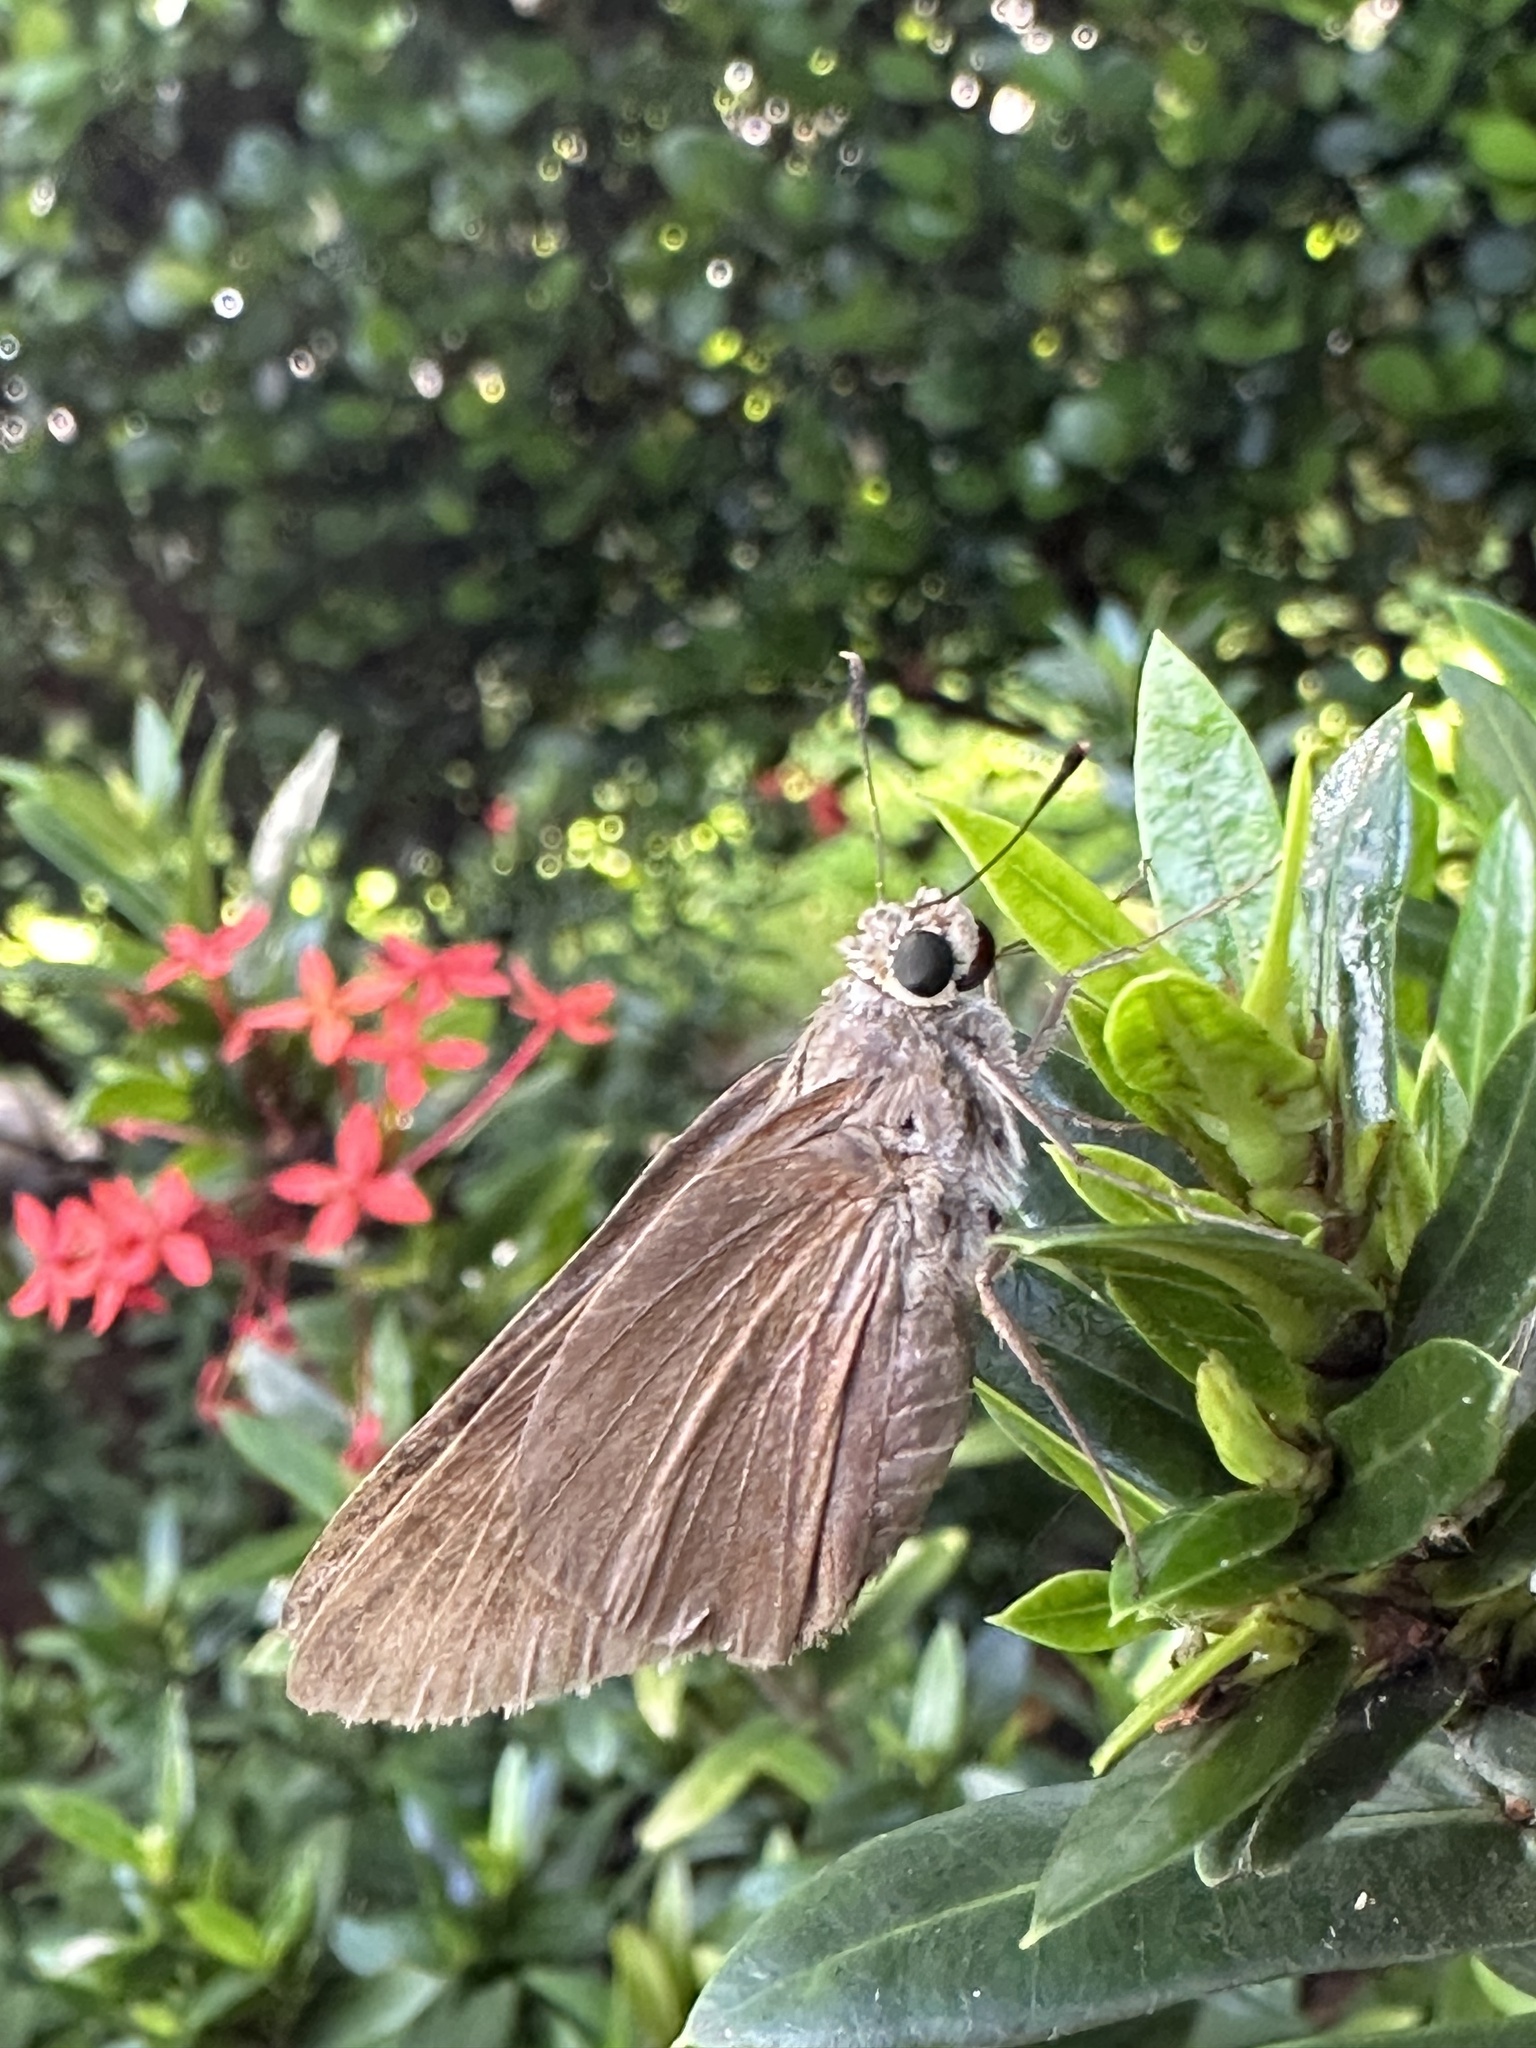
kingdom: Animalia
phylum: Arthropoda
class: Insecta
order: Lepidoptera
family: Hesperiidae
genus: Asbolis
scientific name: Asbolis capucinus
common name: Monk skipper
